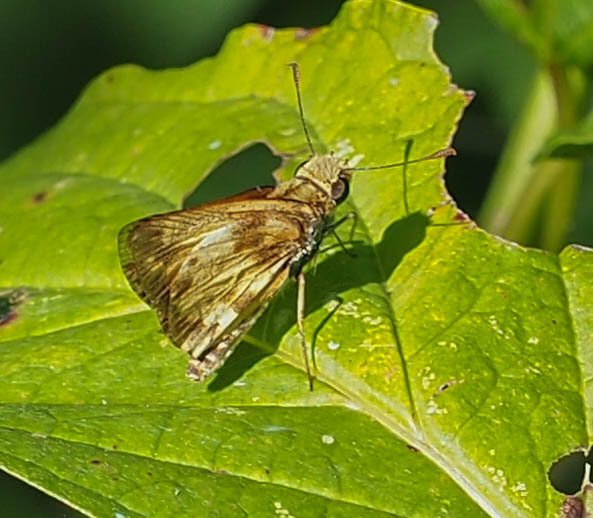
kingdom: Animalia
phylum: Arthropoda
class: Insecta
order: Lepidoptera
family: Hesperiidae
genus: Lon
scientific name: Lon zabulon
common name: Zabulon skipper
